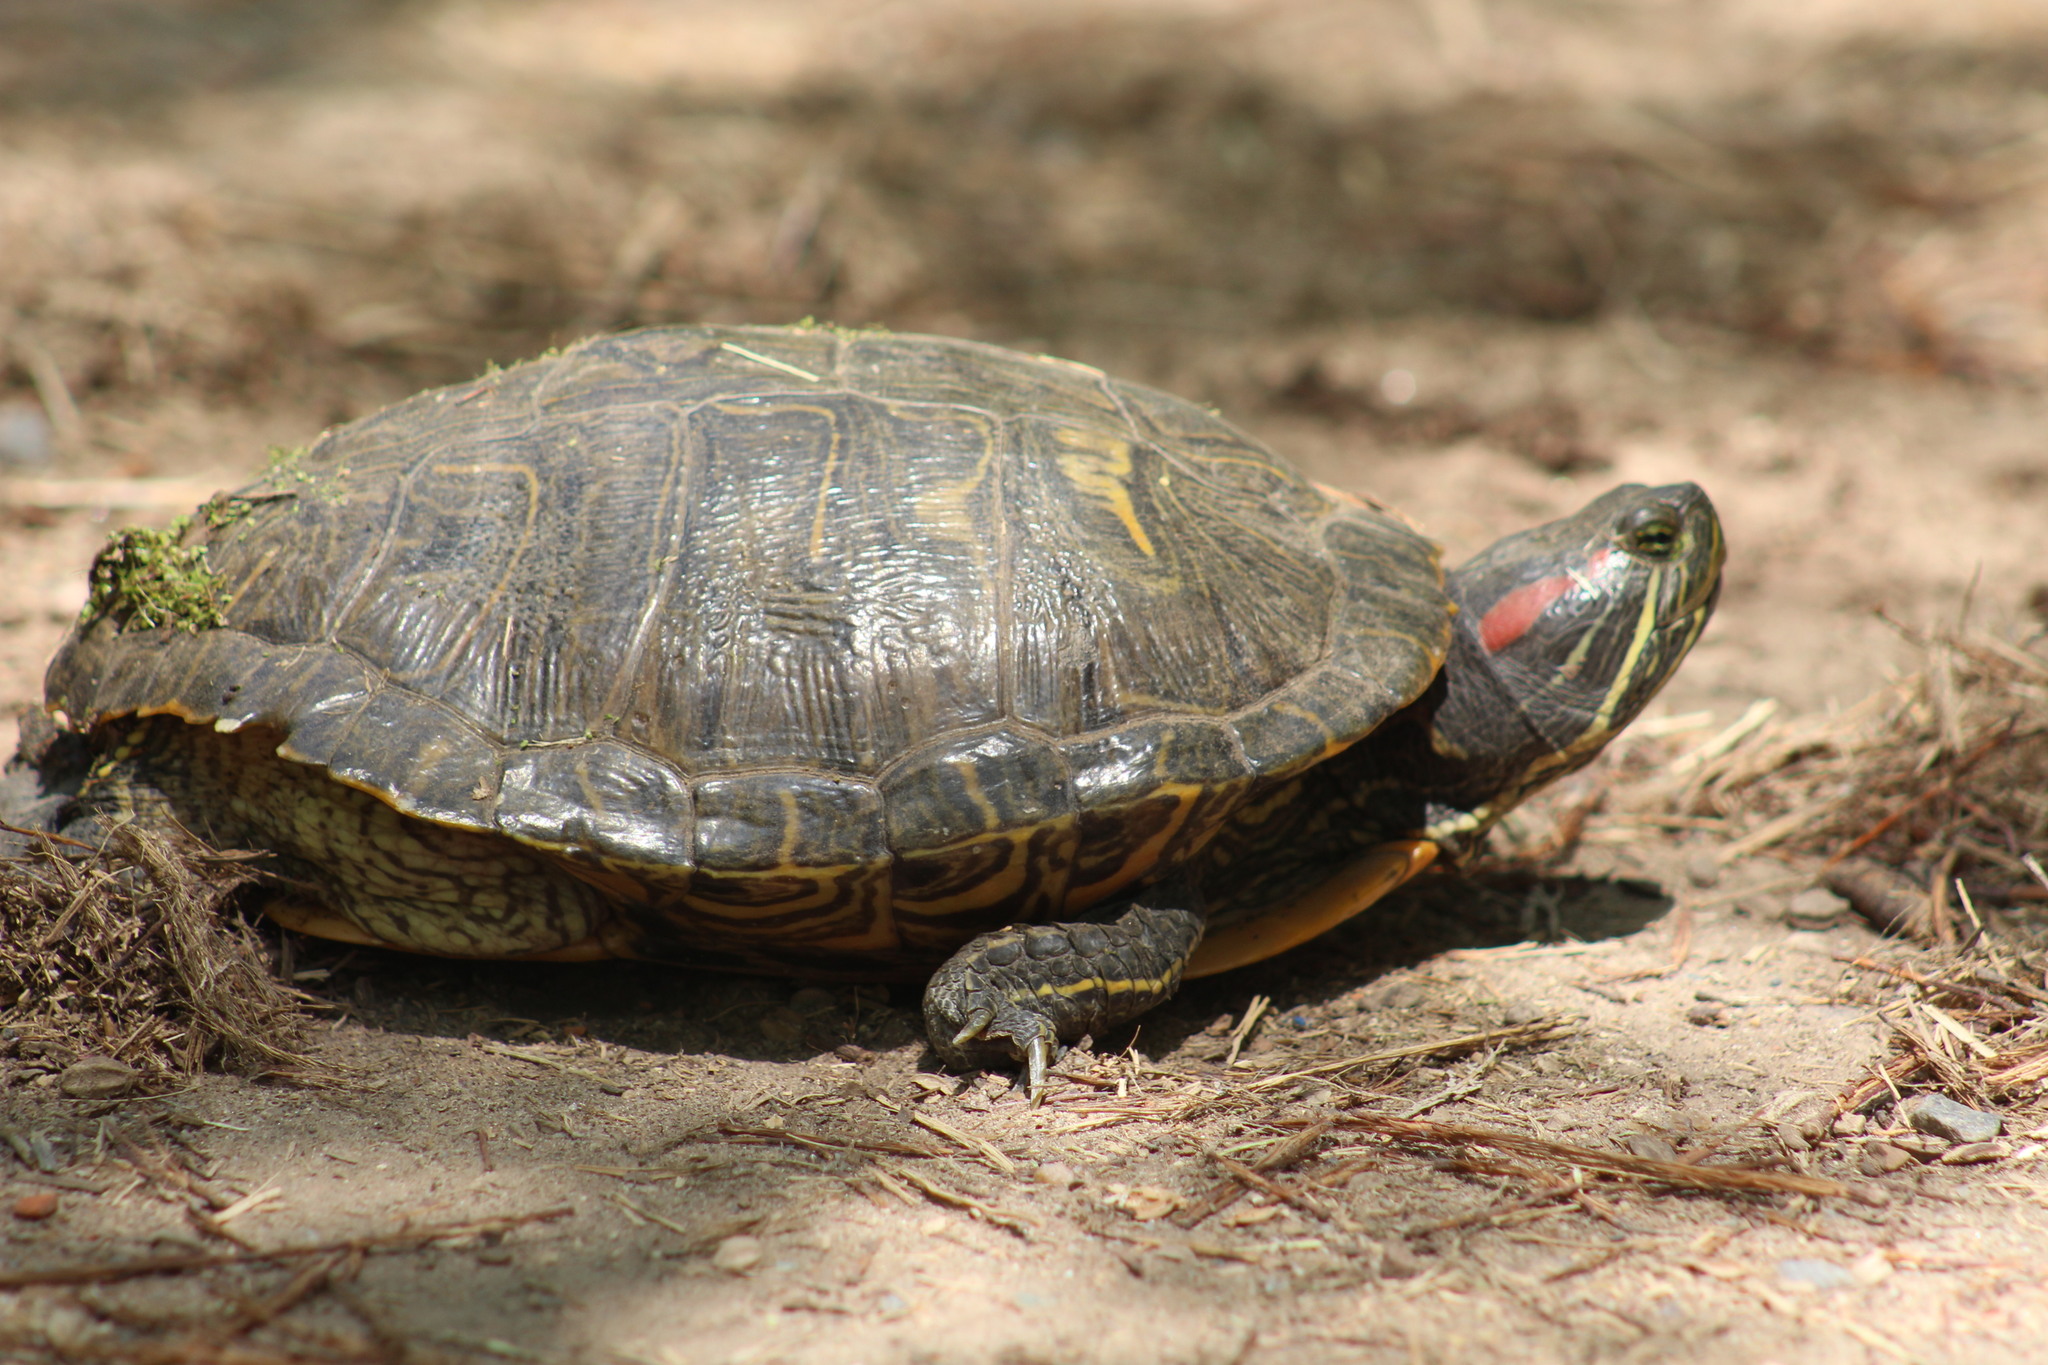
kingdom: Animalia
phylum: Chordata
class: Testudines
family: Emydidae
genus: Trachemys
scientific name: Trachemys scripta
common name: Slider
